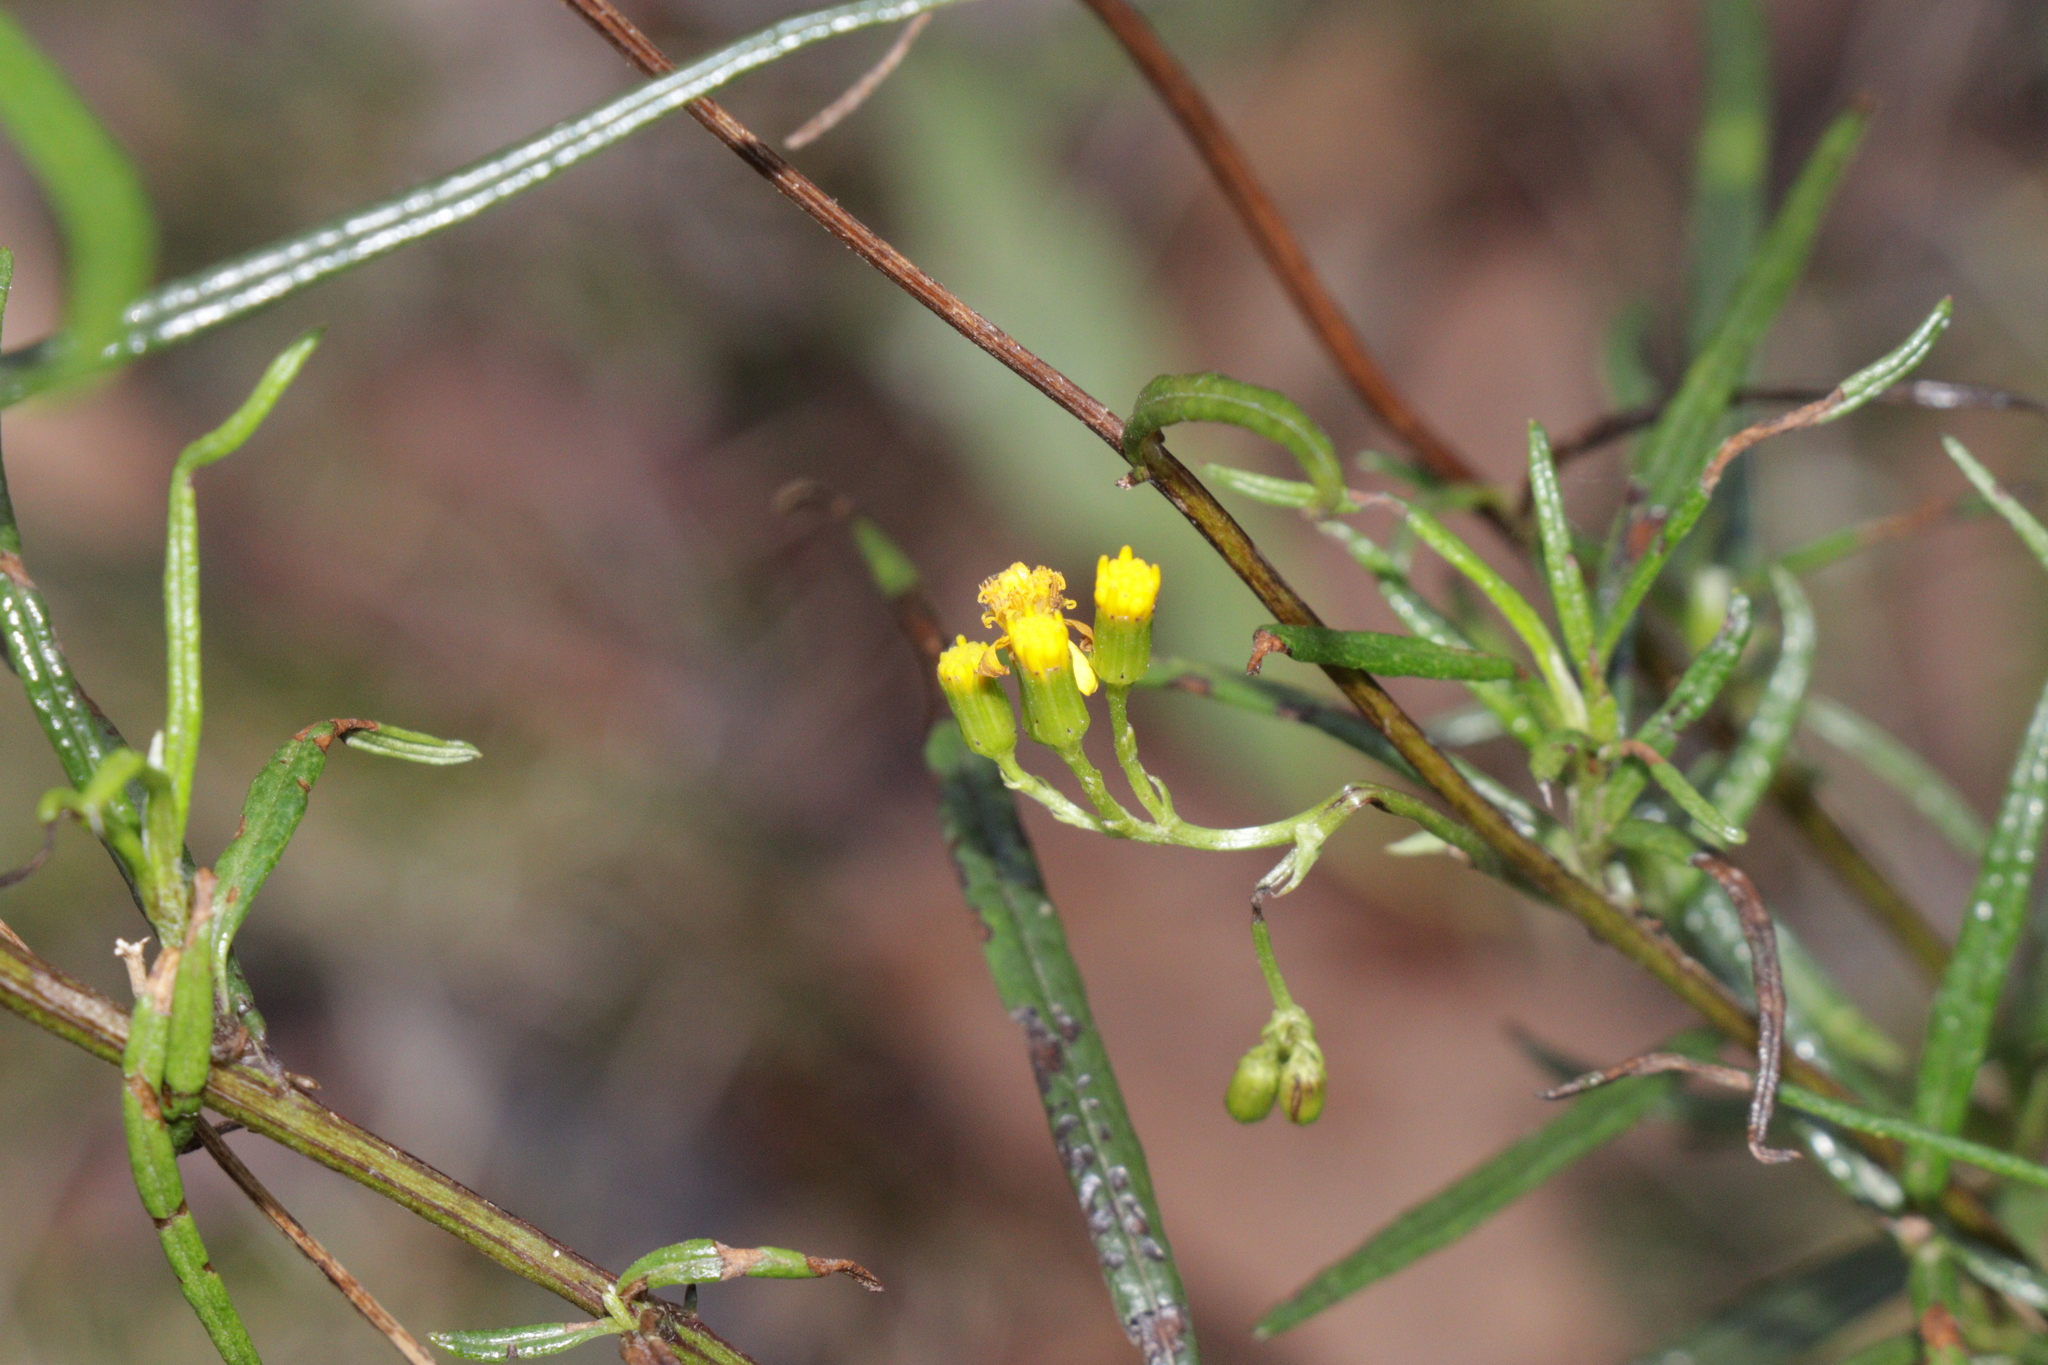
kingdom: Plantae
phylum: Tracheophyta
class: Magnoliopsida
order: Asterales
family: Asteraceae
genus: Senecio
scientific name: Senecio linearifolius
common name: Fireweed groundsel
